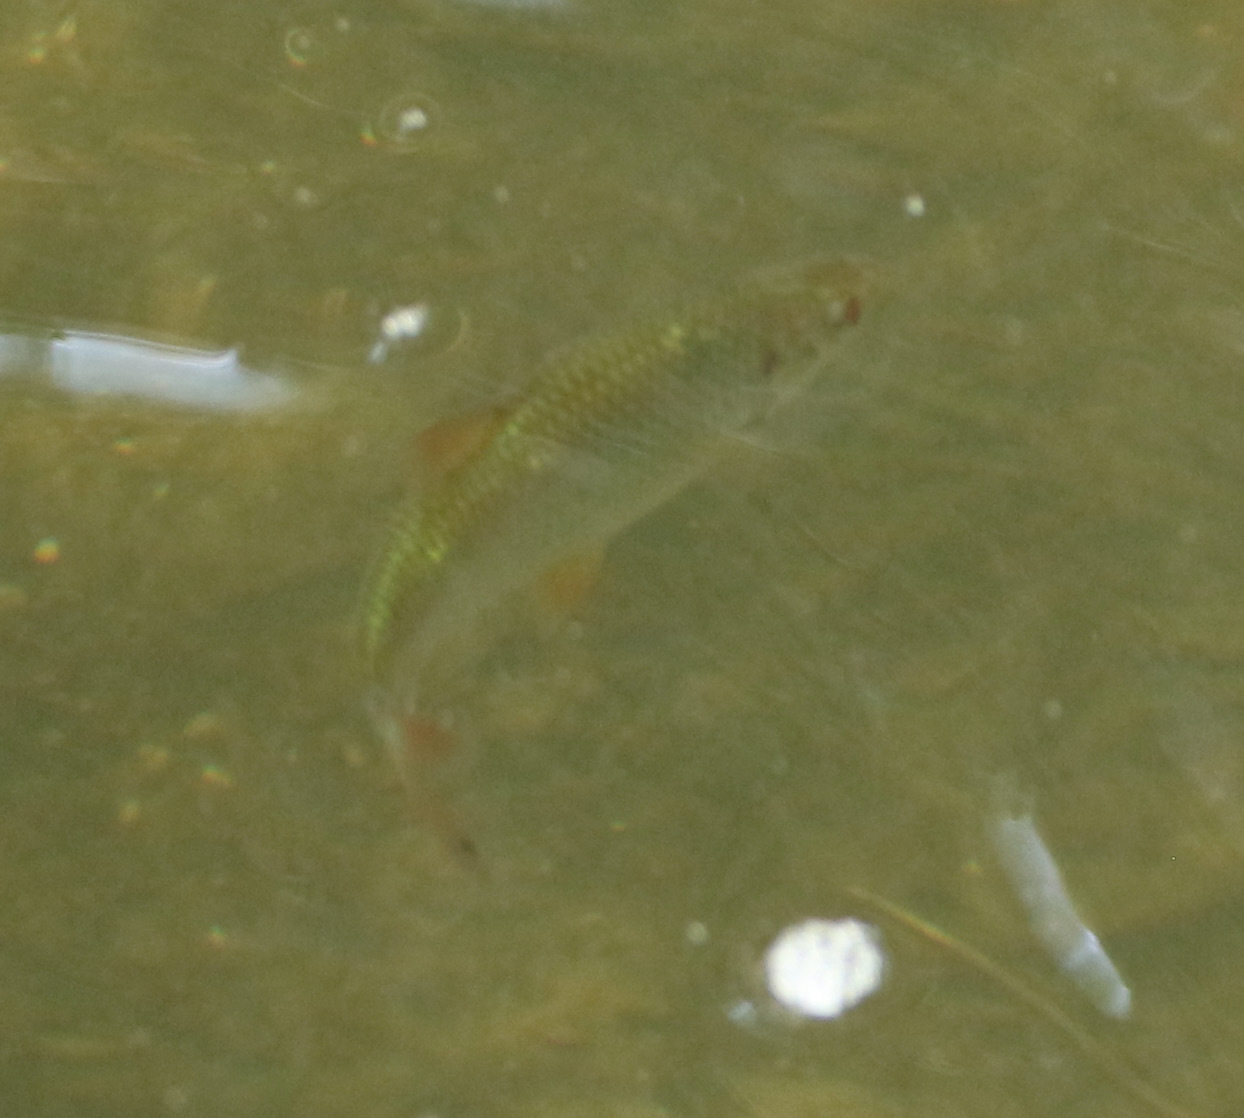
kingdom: Animalia
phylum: Chordata
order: Cypriniformes
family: Cyprinidae
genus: Rutilus
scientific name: Rutilus rutilus
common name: Roach
